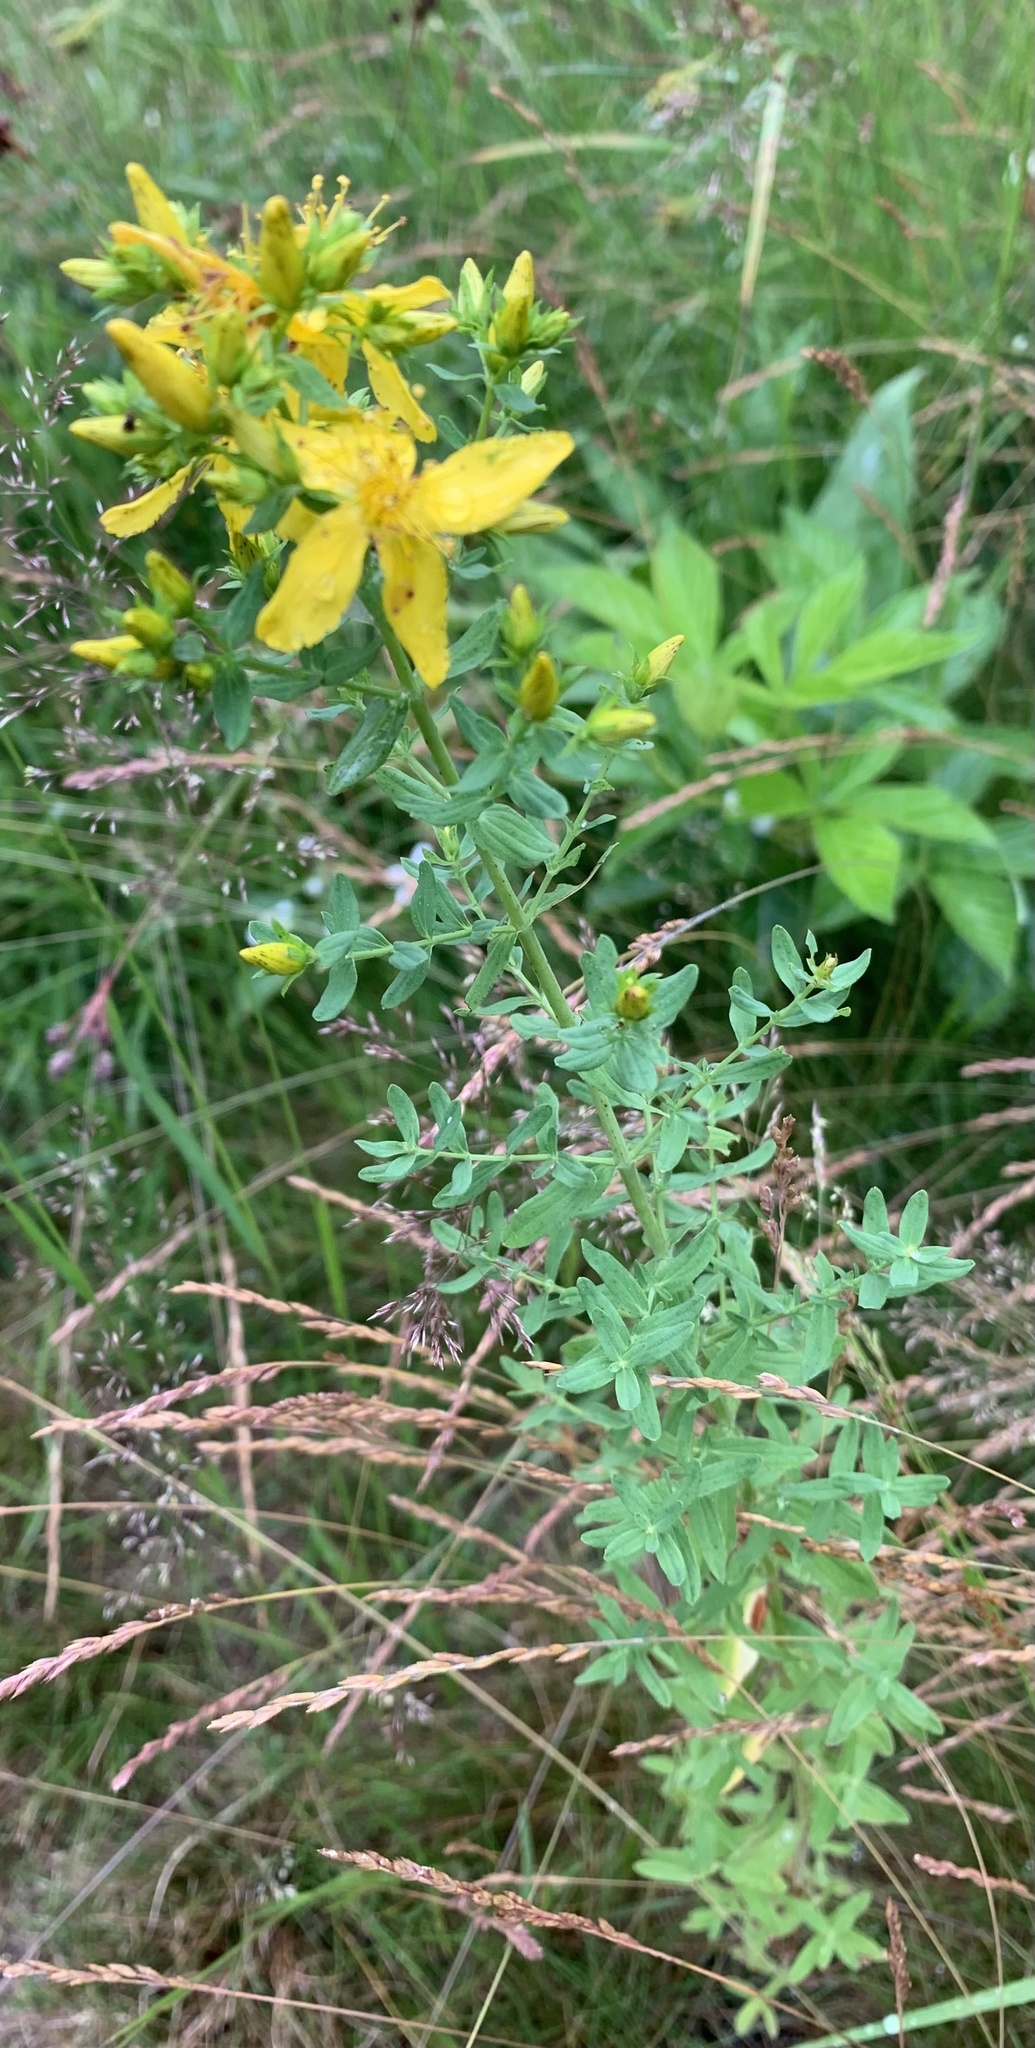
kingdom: Plantae
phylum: Tracheophyta
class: Magnoliopsida
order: Malpighiales
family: Hypericaceae
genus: Hypericum
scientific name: Hypericum perforatum
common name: Common st. johnswort
